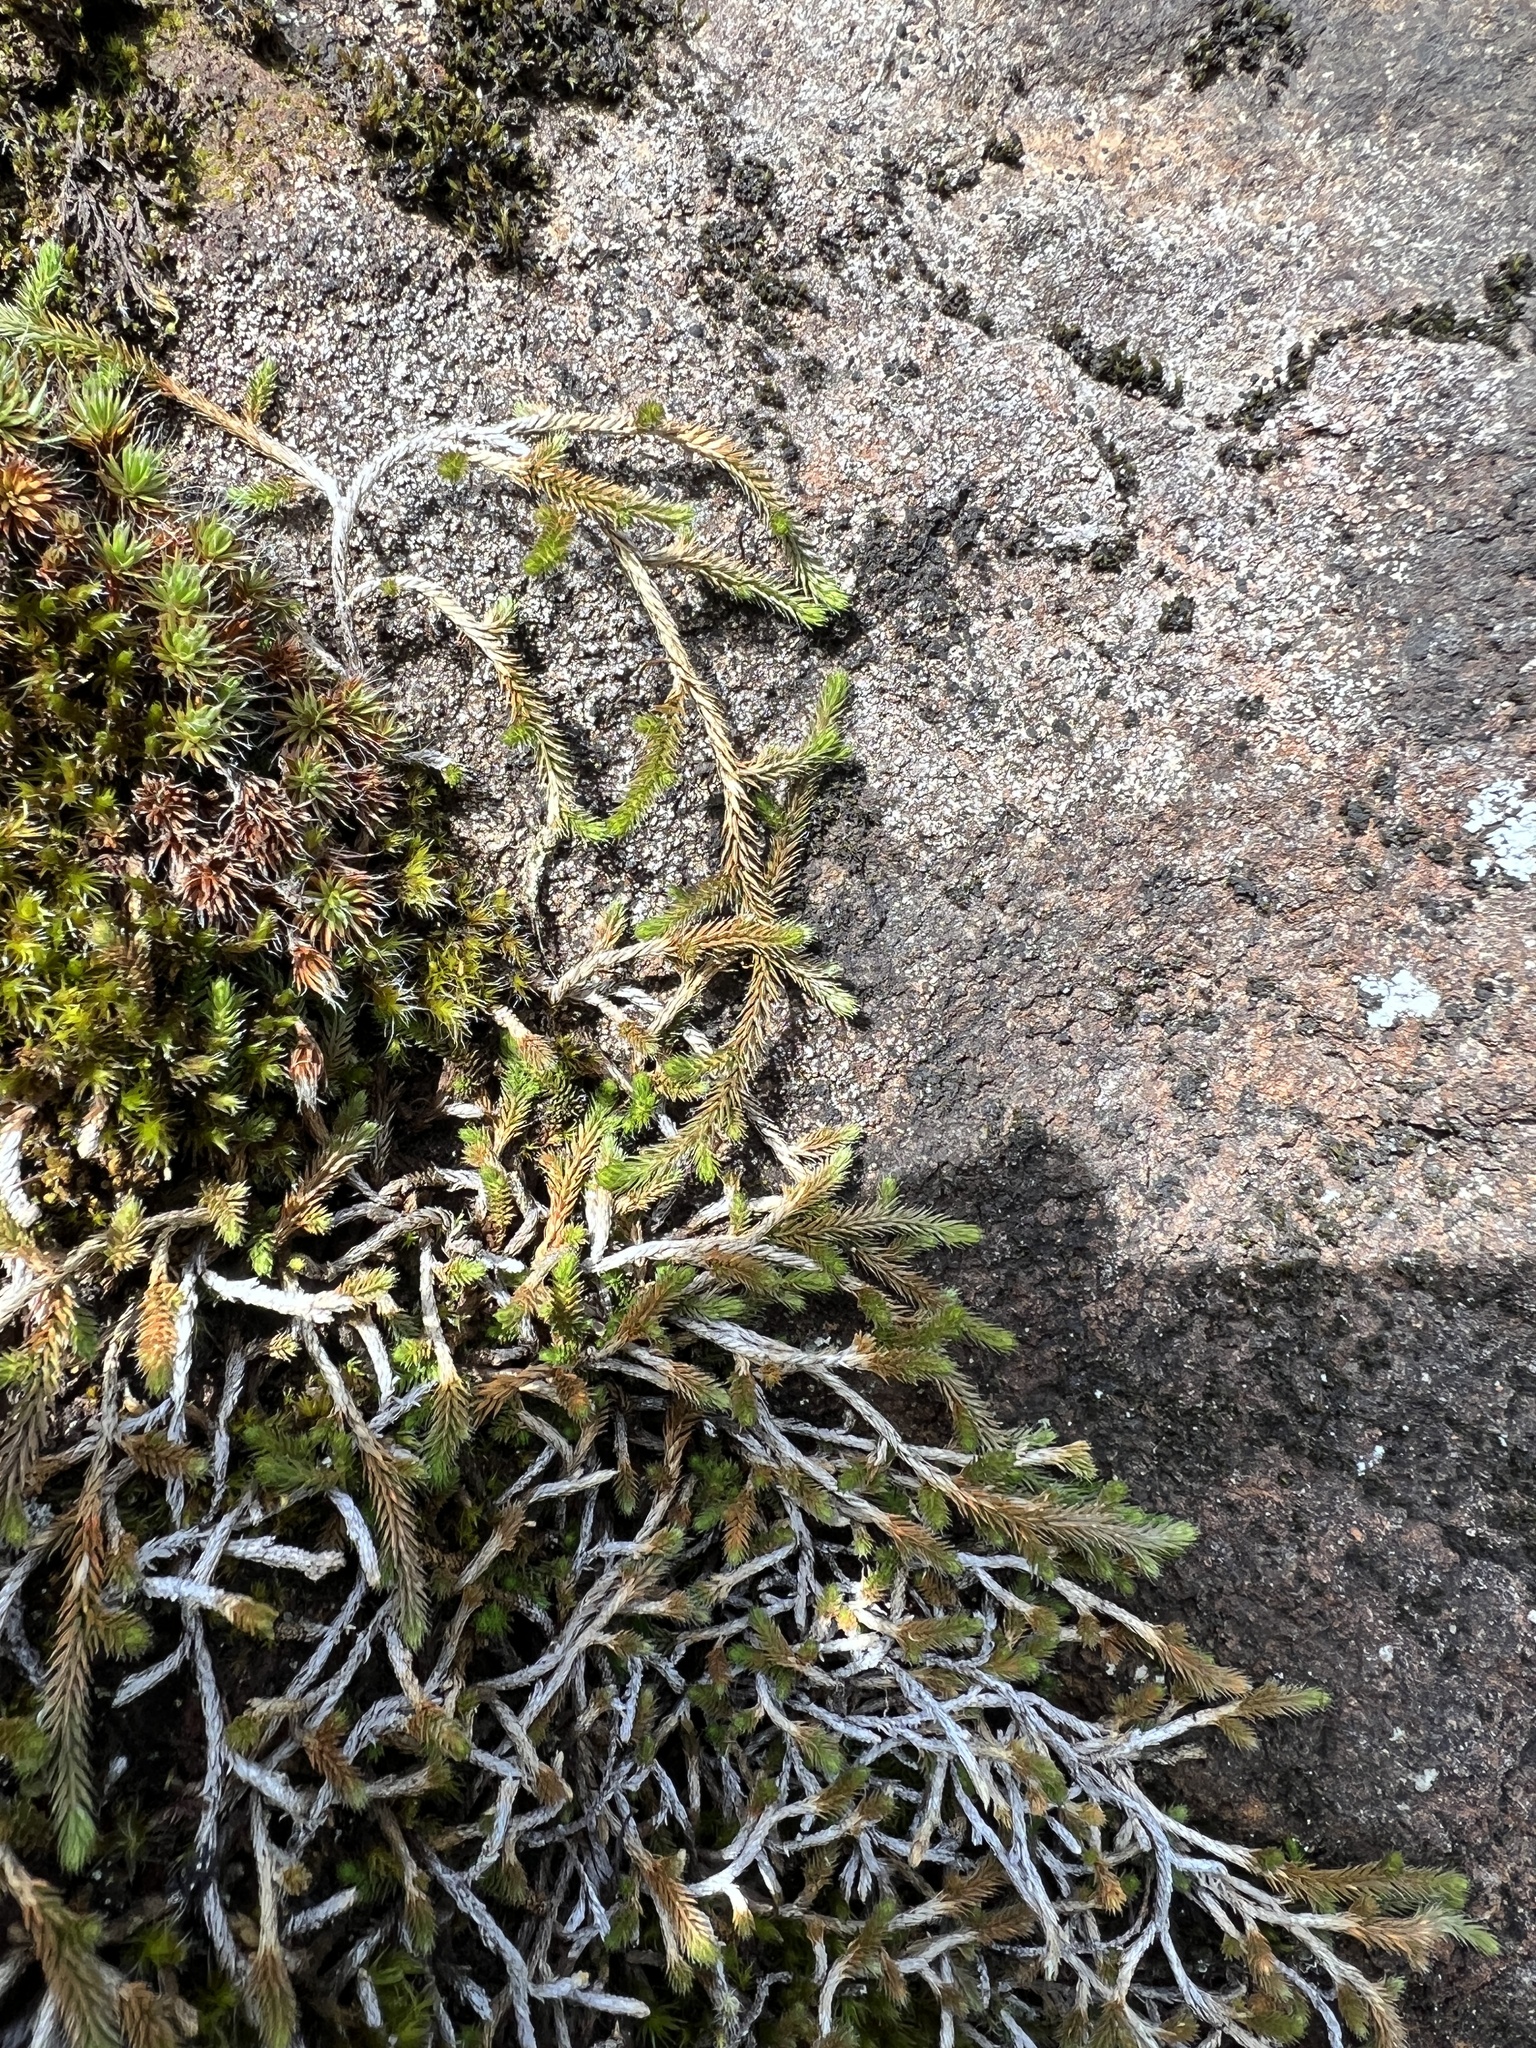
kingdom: Plantae
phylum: Tracheophyta
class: Lycopodiopsida
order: Selaginellales
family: Selaginellaceae
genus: Selaginella
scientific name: Selaginella wallacei
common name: Wallace's selaginella
